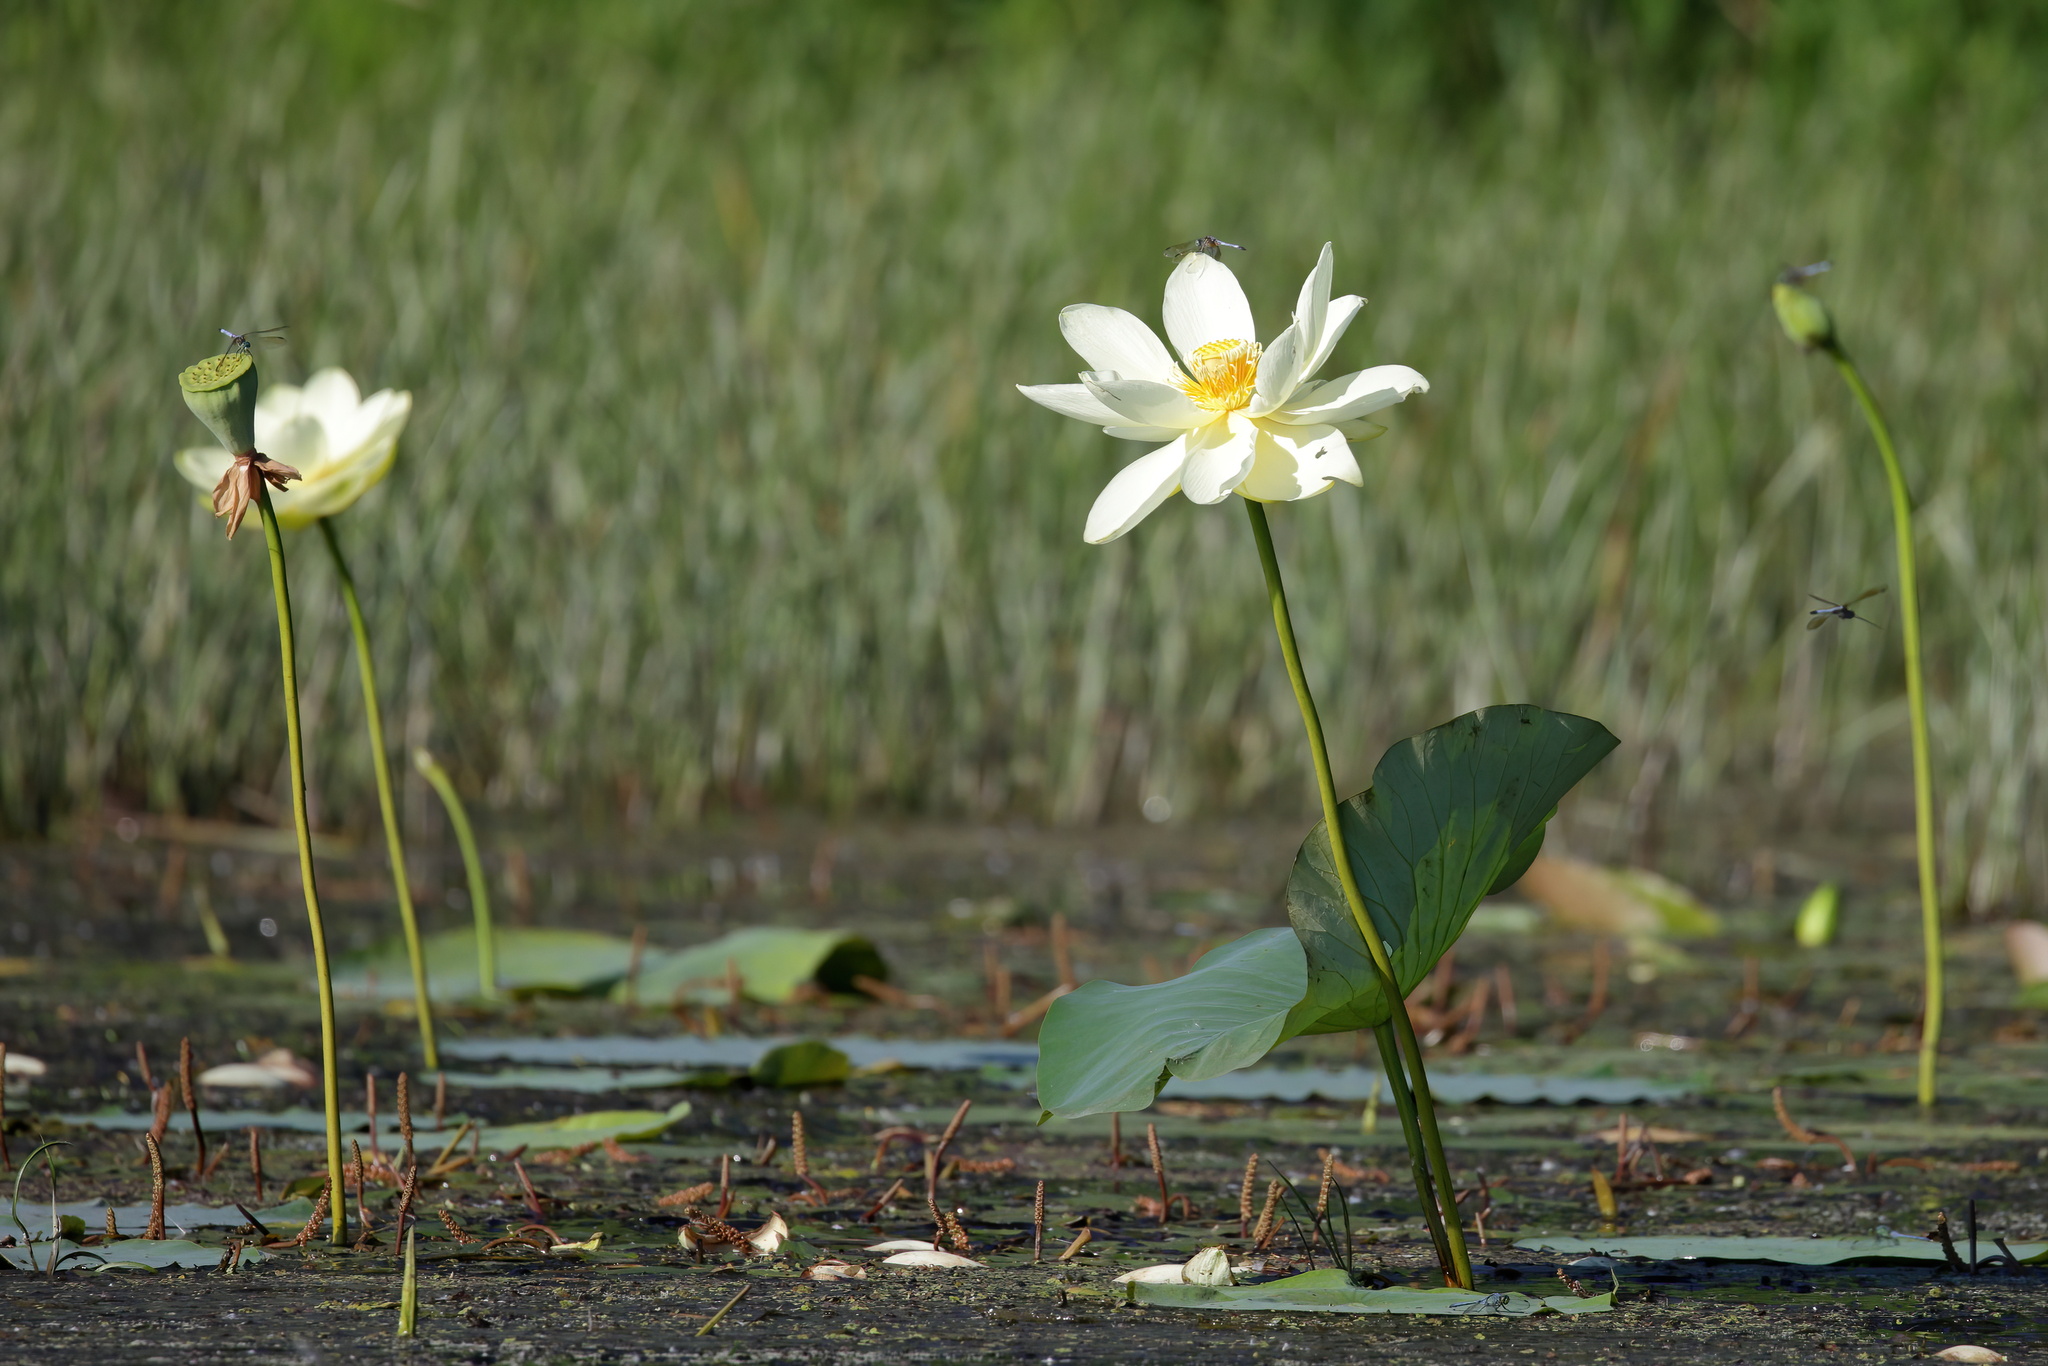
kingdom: Plantae
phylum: Tracheophyta
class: Magnoliopsida
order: Proteales
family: Nelumbonaceae
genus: Nelumbo
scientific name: Nelumbo lutea
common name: American lotus
